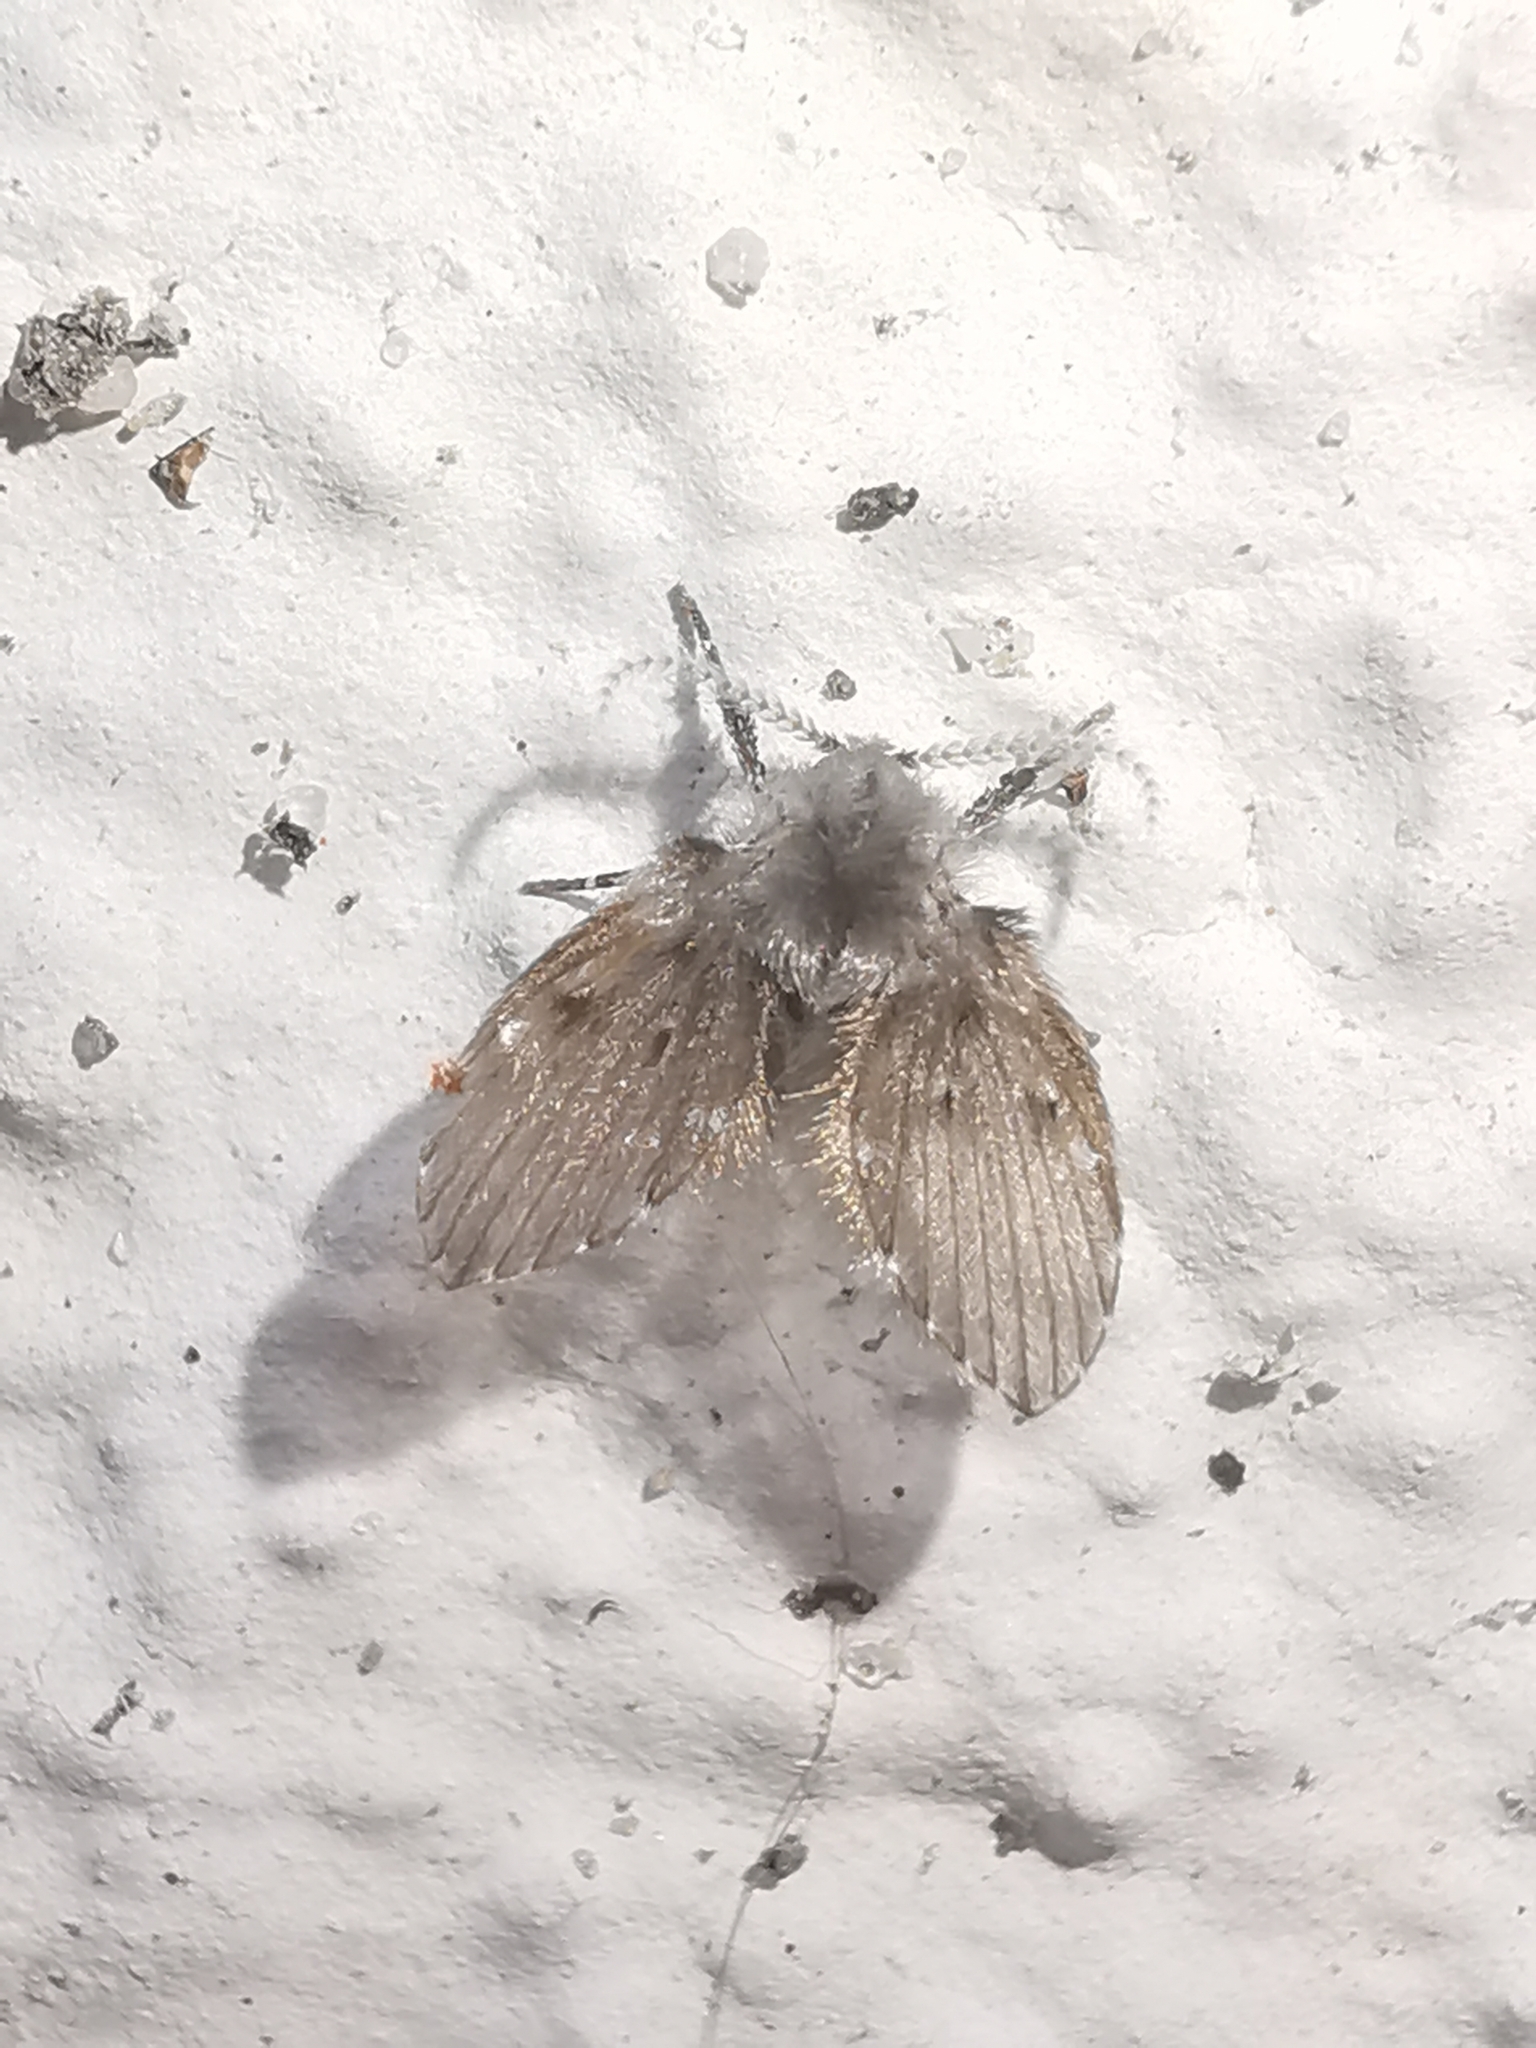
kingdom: Animalia
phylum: Arthropoda
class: Insecta
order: Diptera
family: Psychodidae
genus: Clogmia
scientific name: Clogmia albipunctatus
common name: White-spotted moth fly
